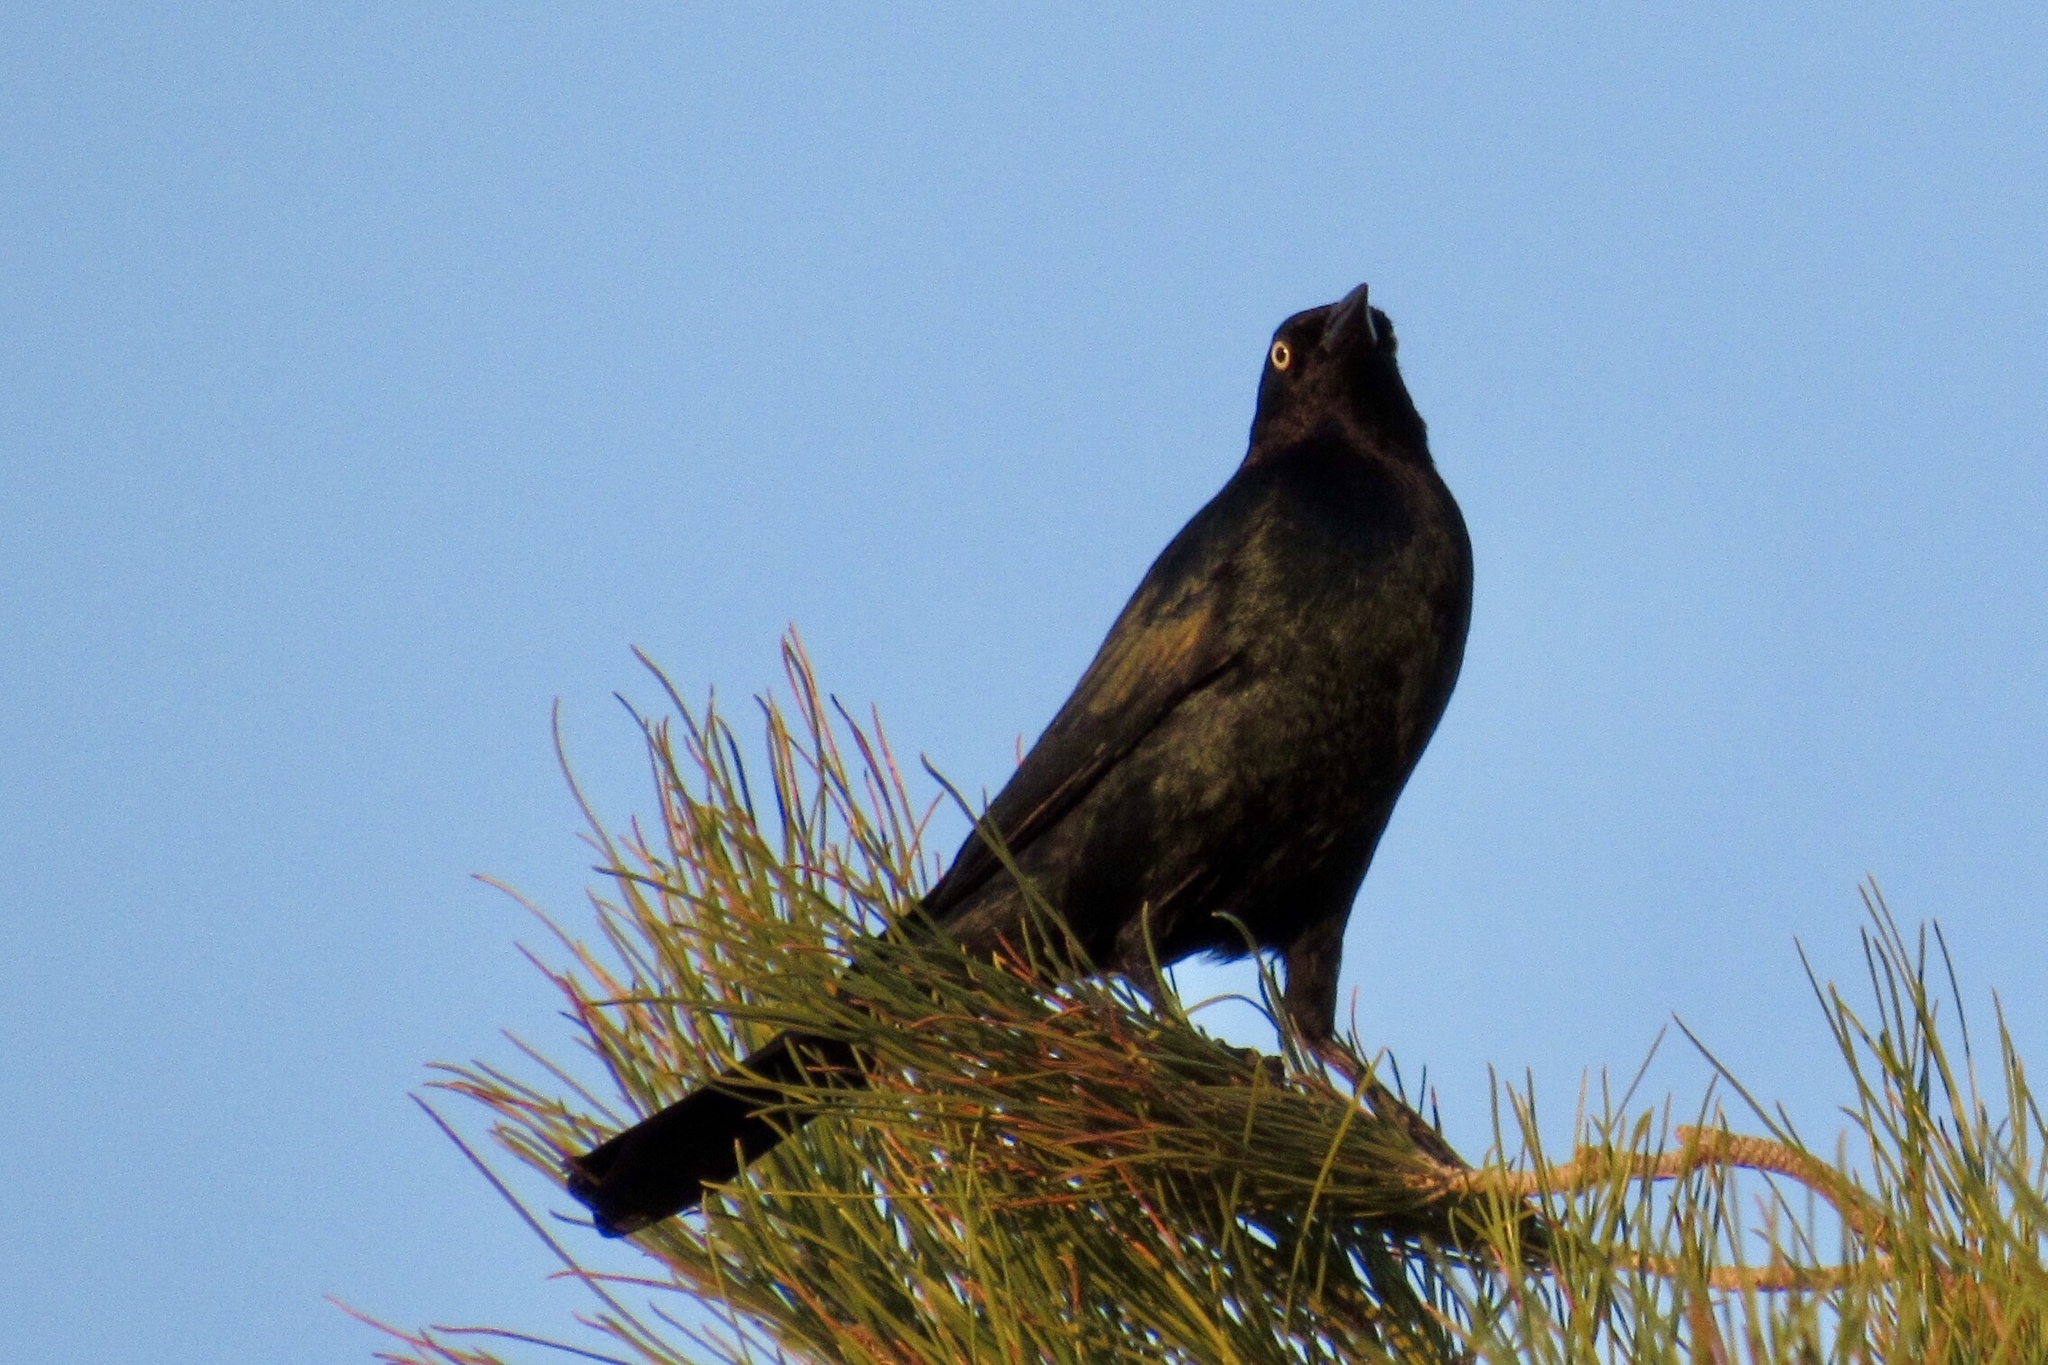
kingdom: Animalia
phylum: Chordata
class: Aves
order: Passeriformes
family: Icteridae
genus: Euphagus
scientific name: Euphagus cyanocephalus
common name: Brewer's blackbird
